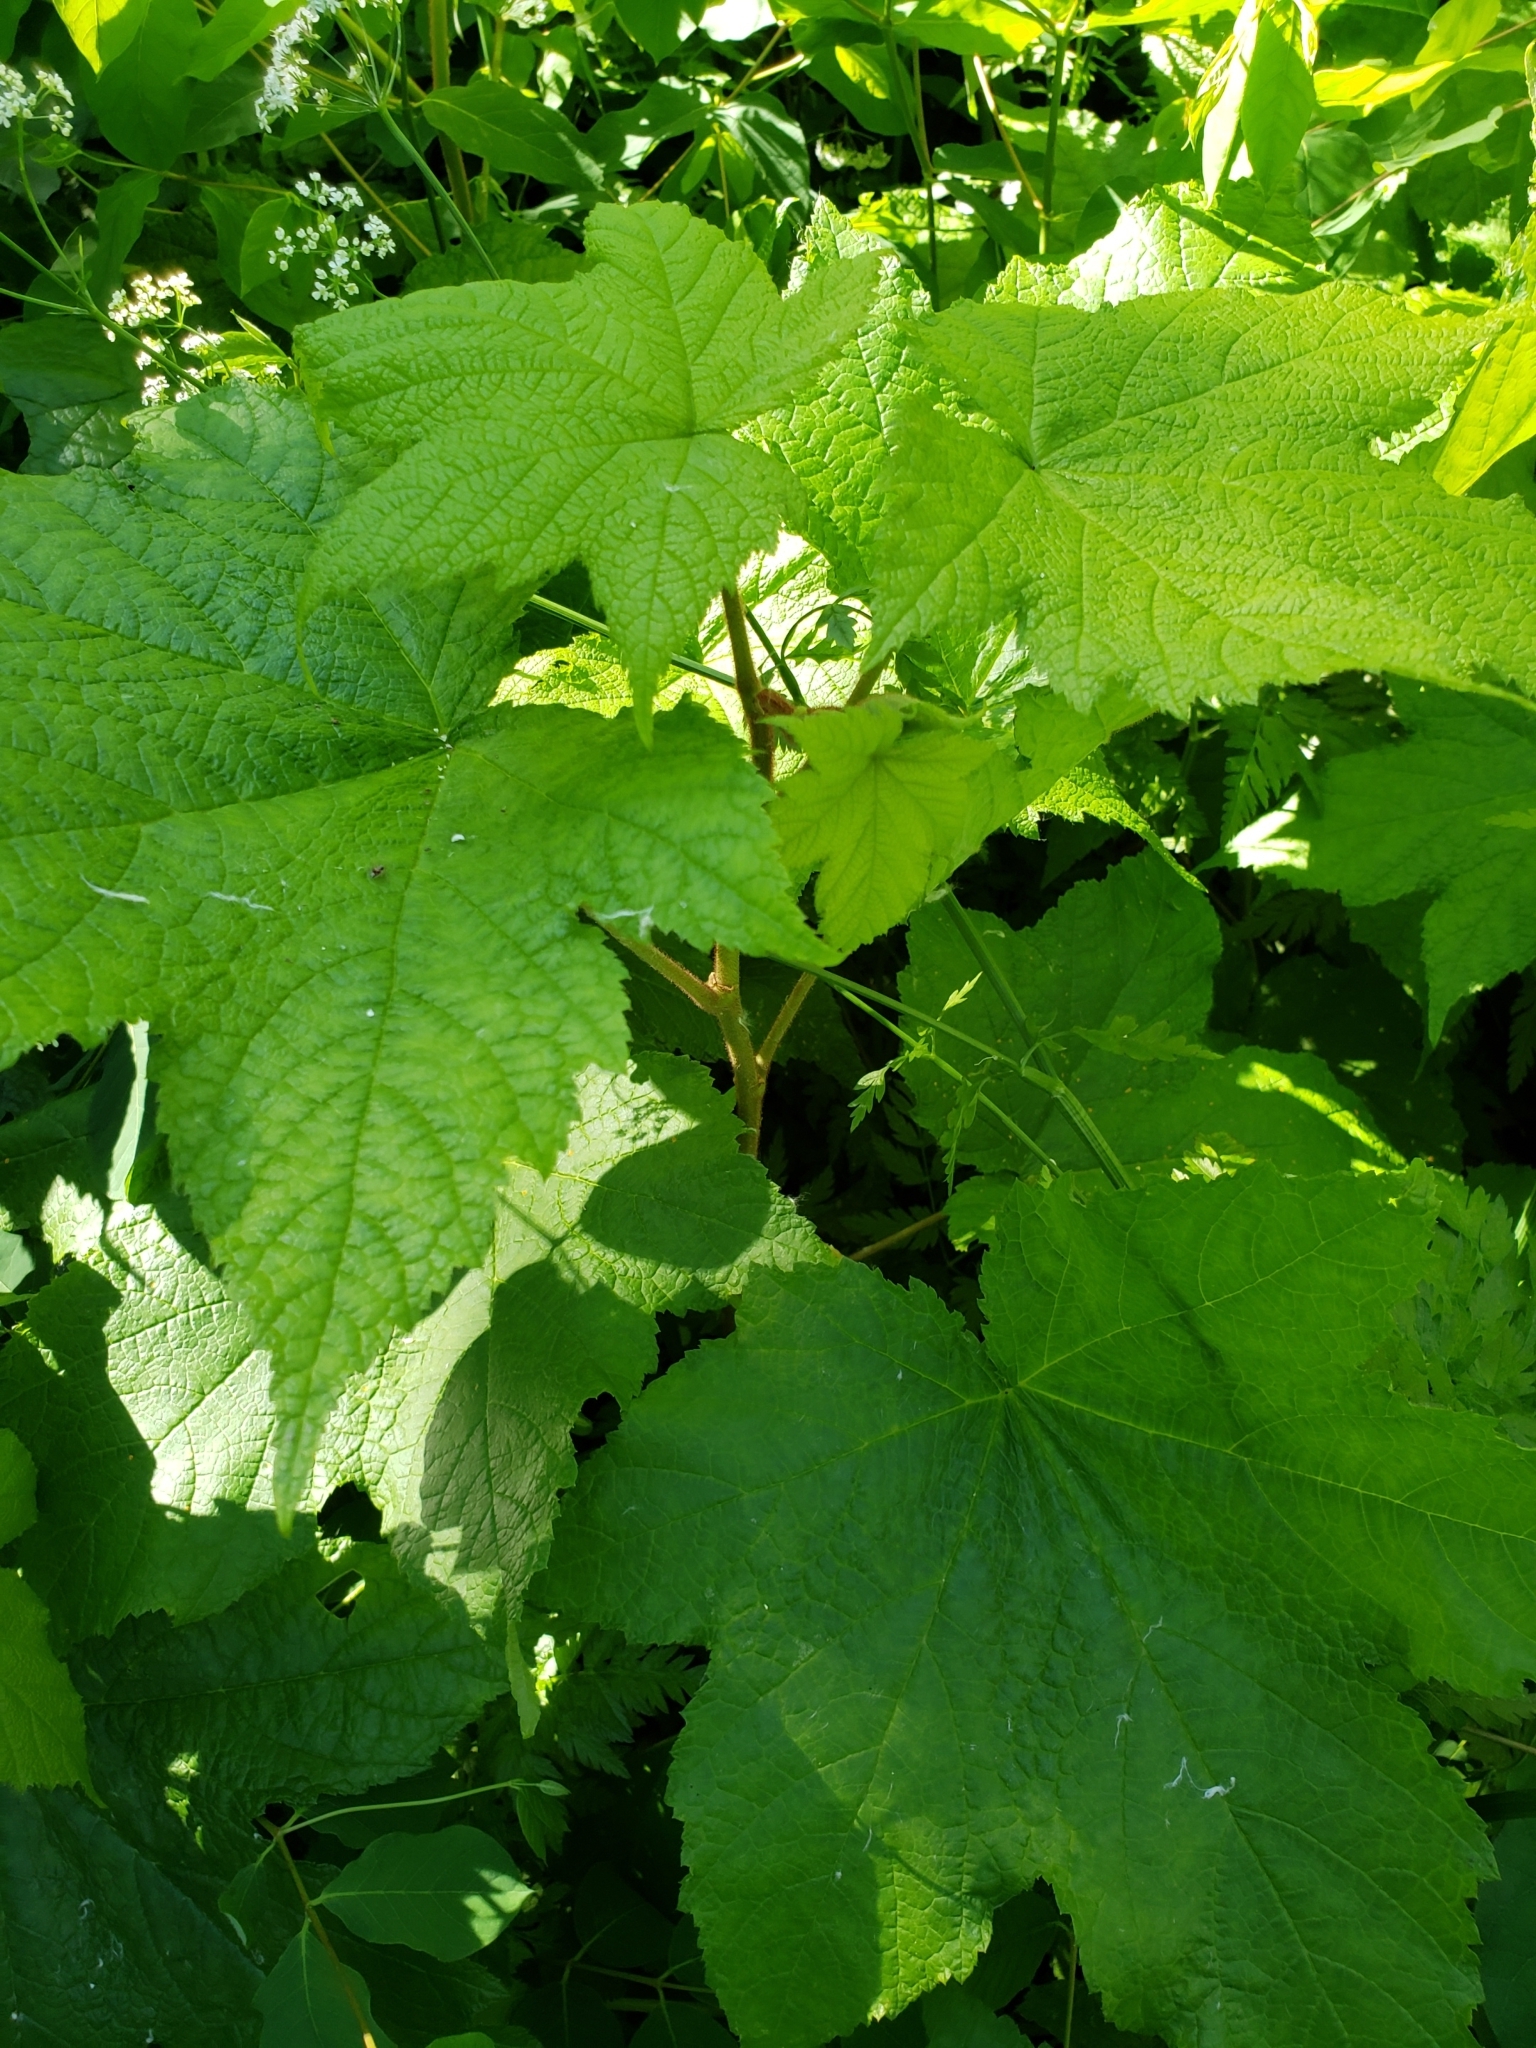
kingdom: Plantae
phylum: Tracheophyta
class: Magnoliopsida
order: Rosales
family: Rosaceae
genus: Rubus
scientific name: Rubus odoratus
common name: Purple-flowered raspberry
